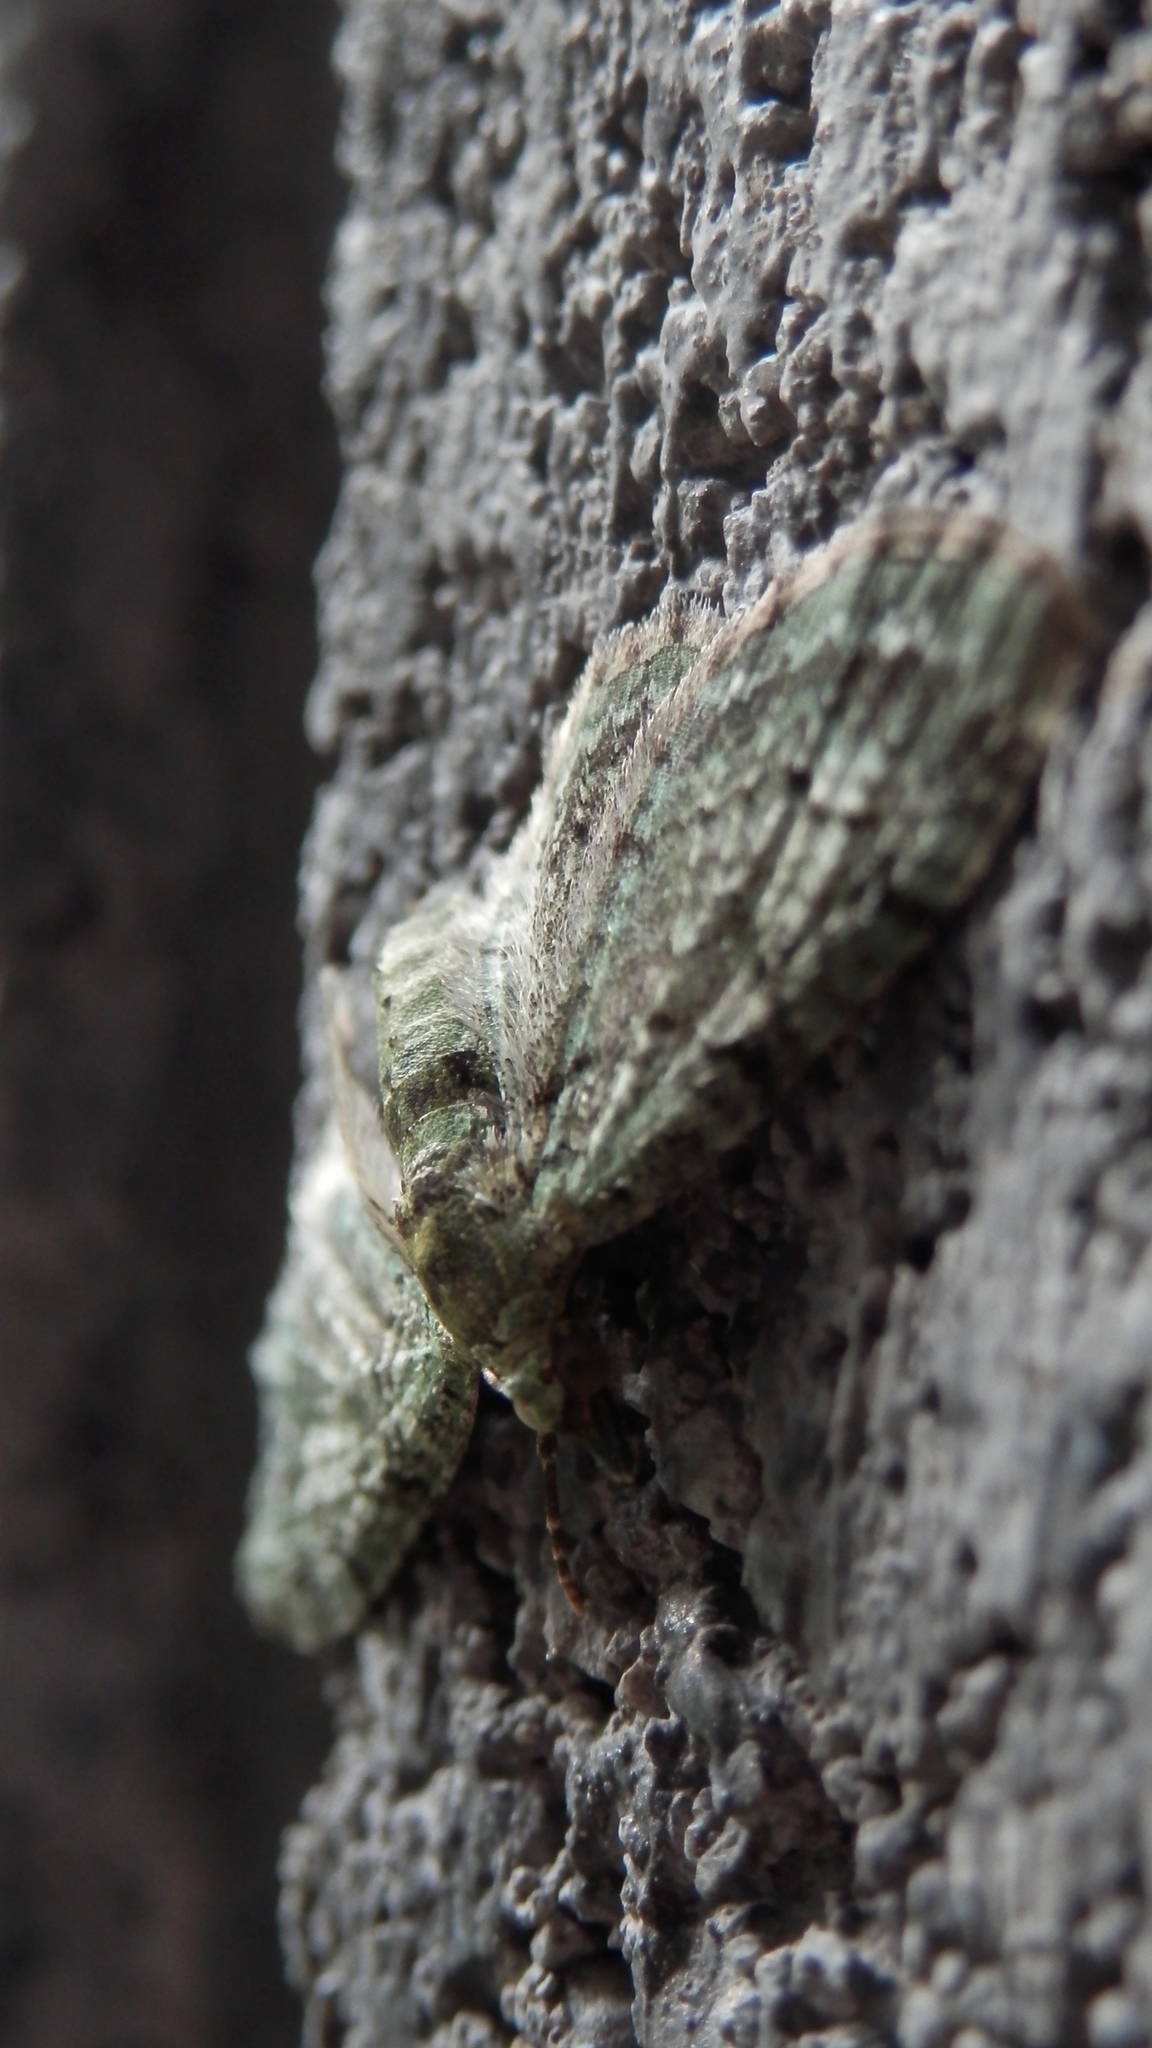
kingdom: Animalia
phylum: Arthropoda
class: Insecta
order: Lepidoptera
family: Geometridae
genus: Pasiphila
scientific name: Pasiphila rectangulata
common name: Green pug
